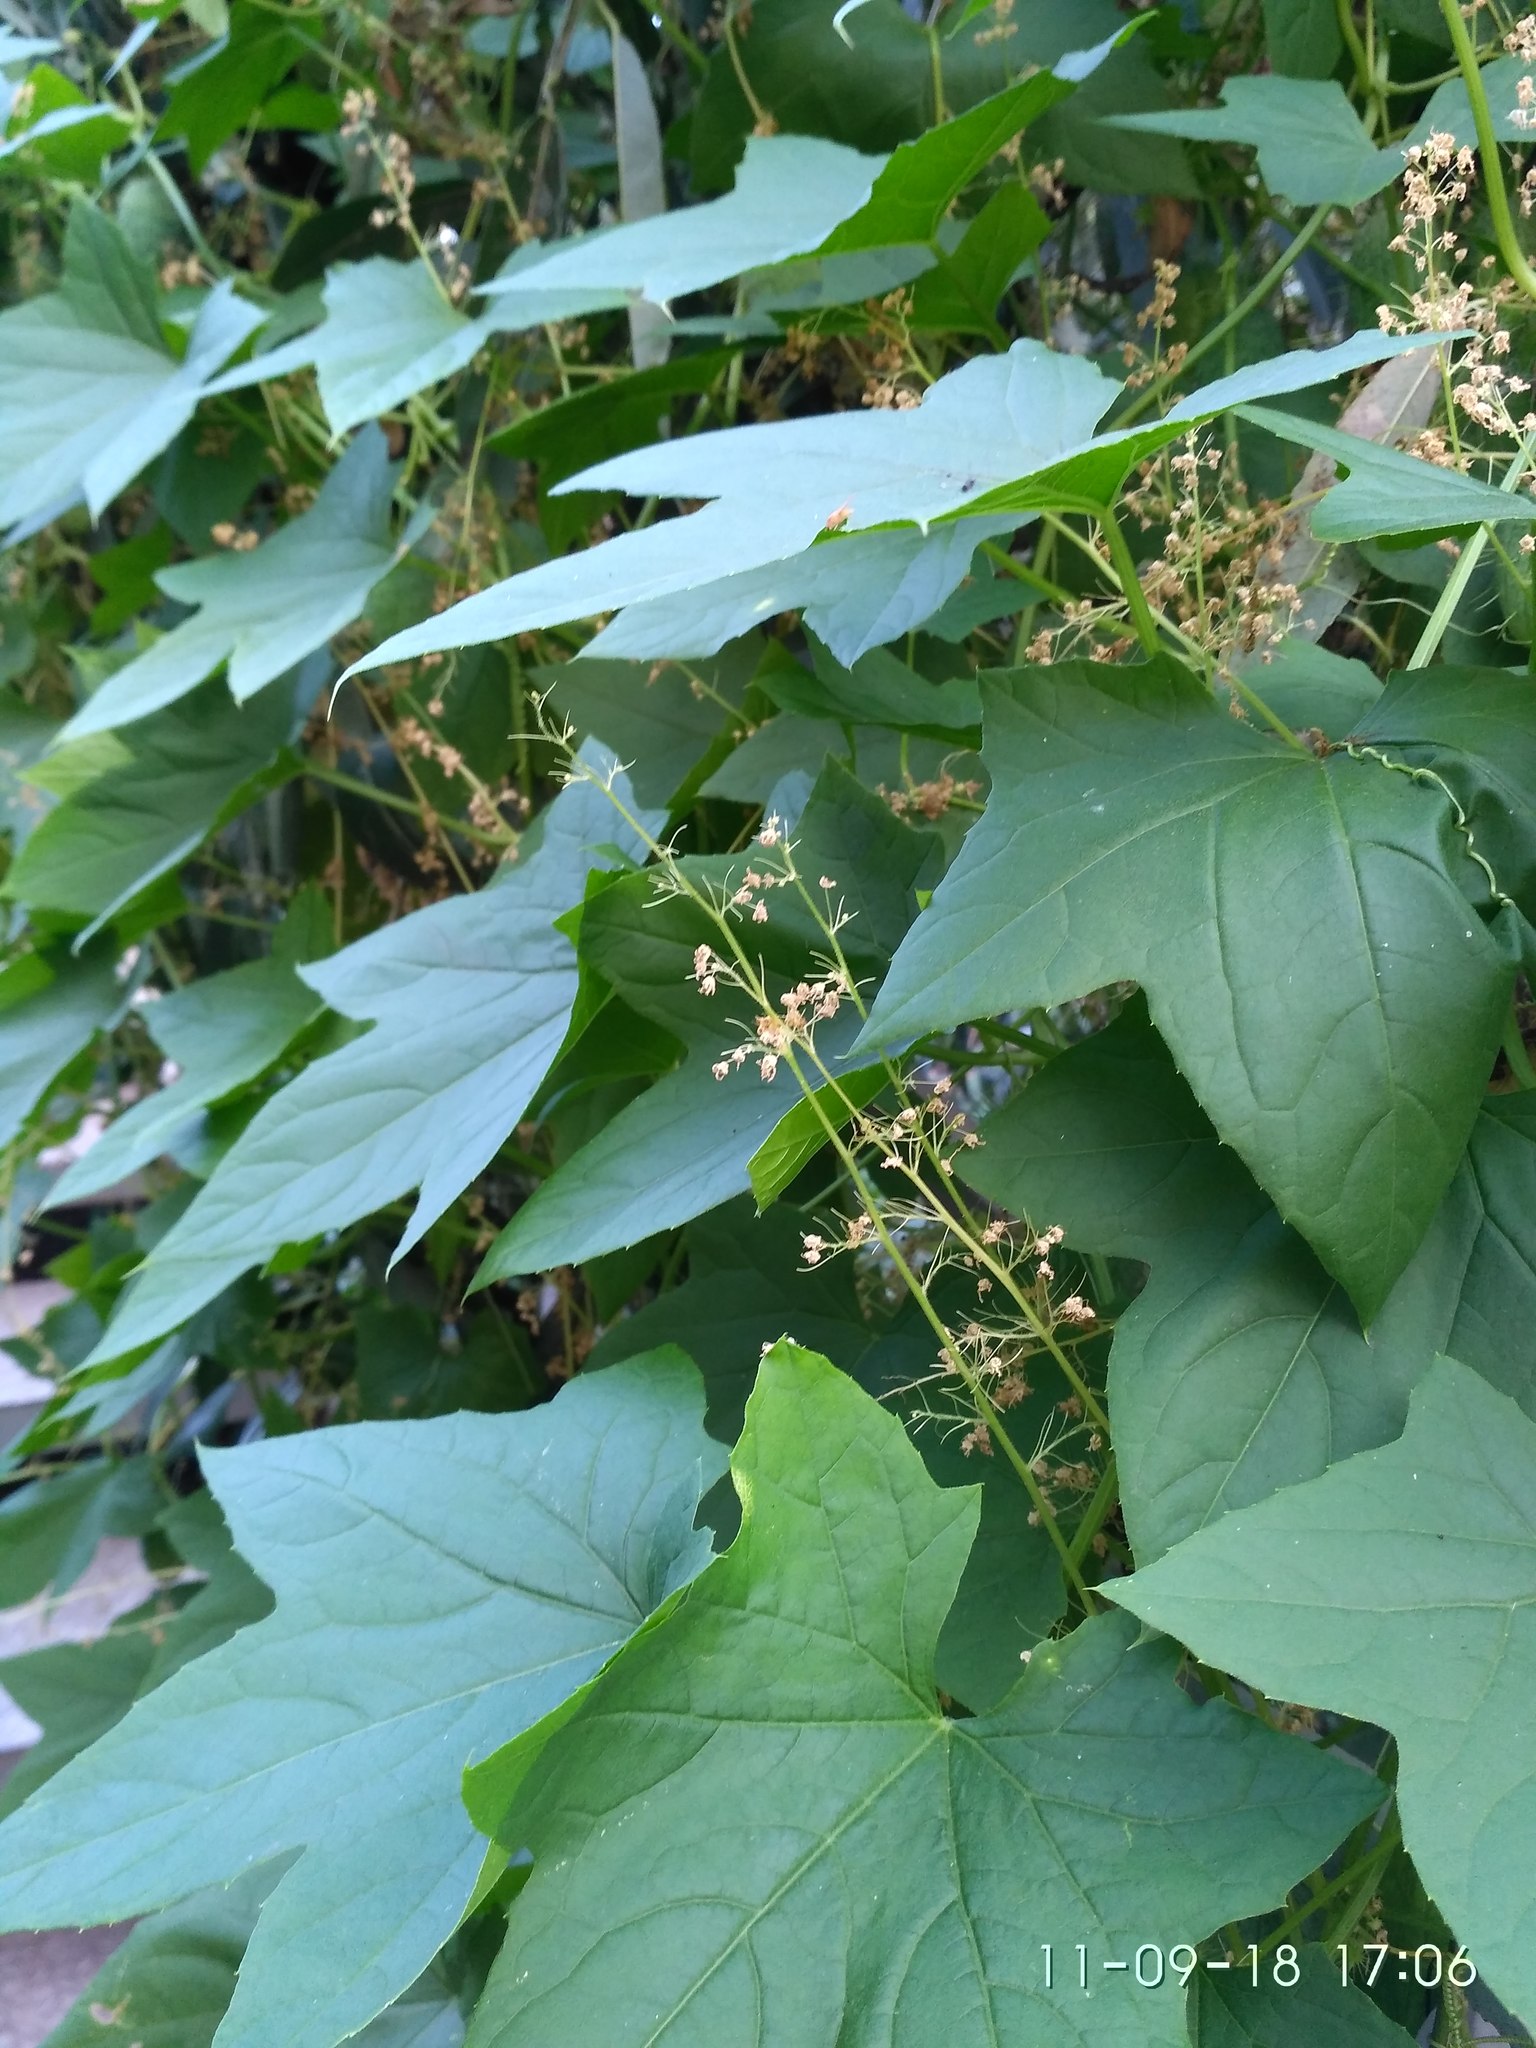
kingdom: Plantae
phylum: Tracheophyta
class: Magnoliopsida
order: Cucurbitales
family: Cucurbitaceae
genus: Echinocystis
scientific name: Echinocystis lobata
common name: Wild cucumber
